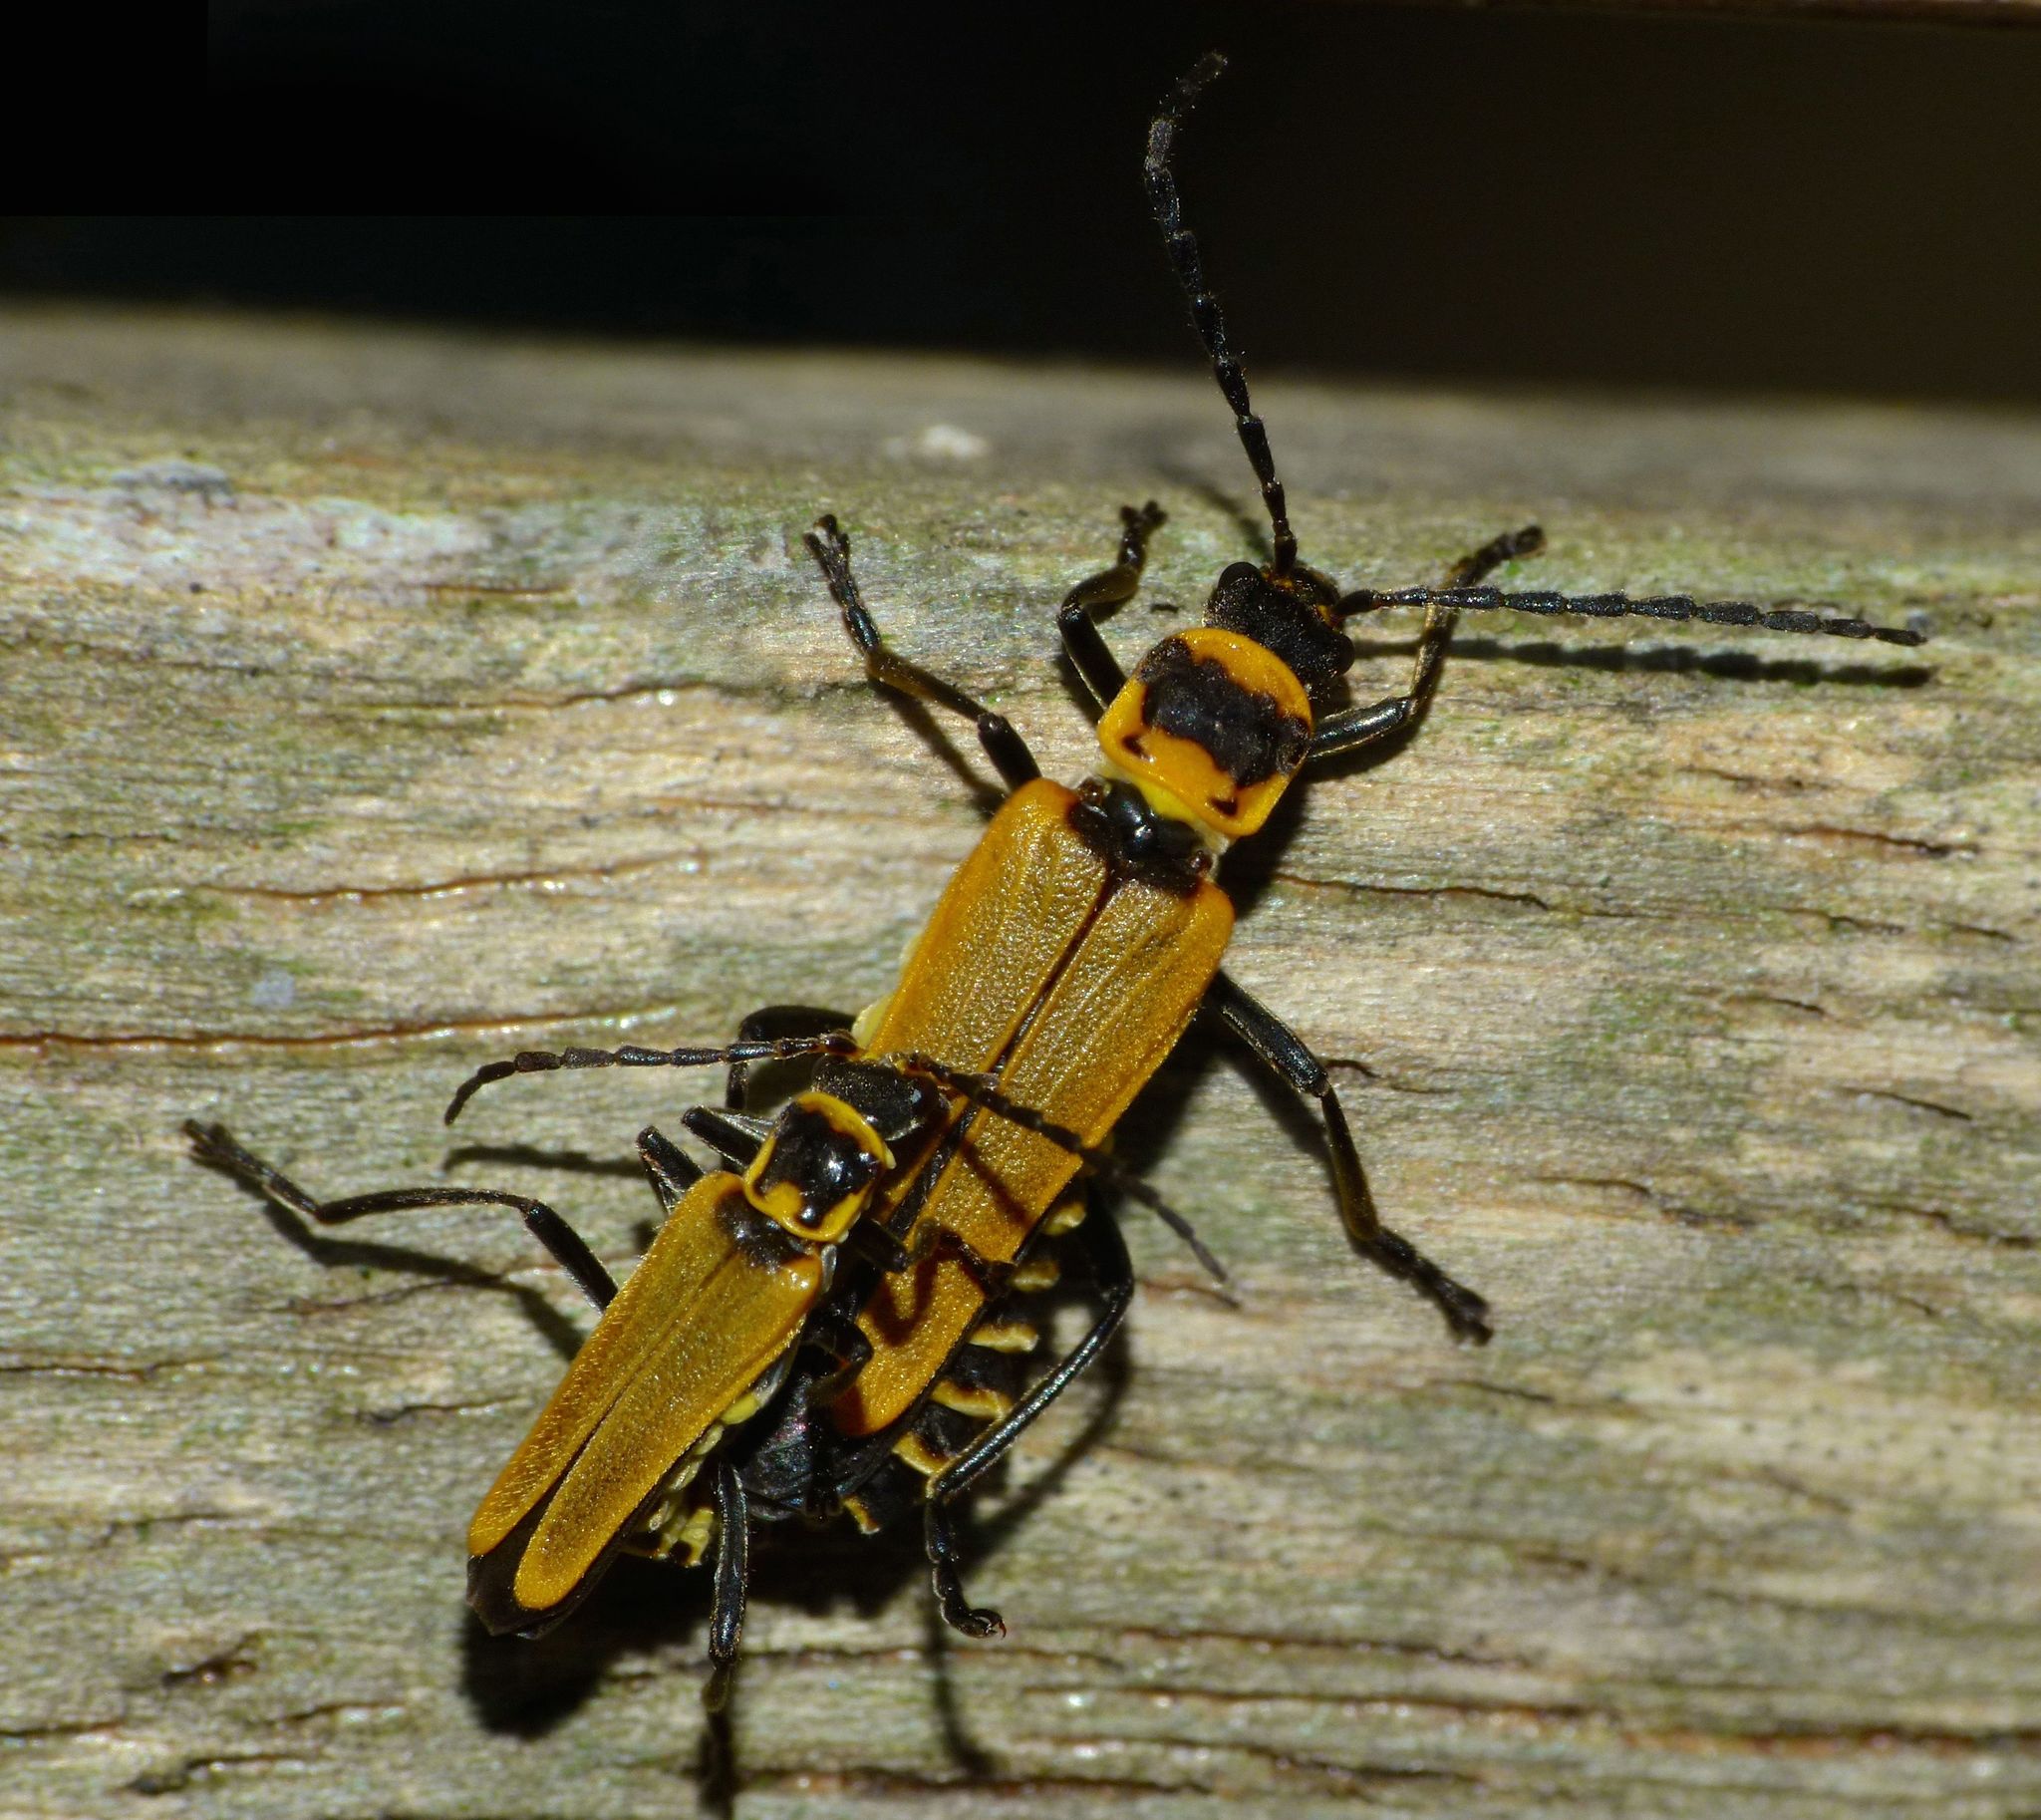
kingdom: Animalia
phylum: Arthropoda
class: Insecta
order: Coleoptera
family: Cantharidae
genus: Chauliognathus
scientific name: Chauliognathus
